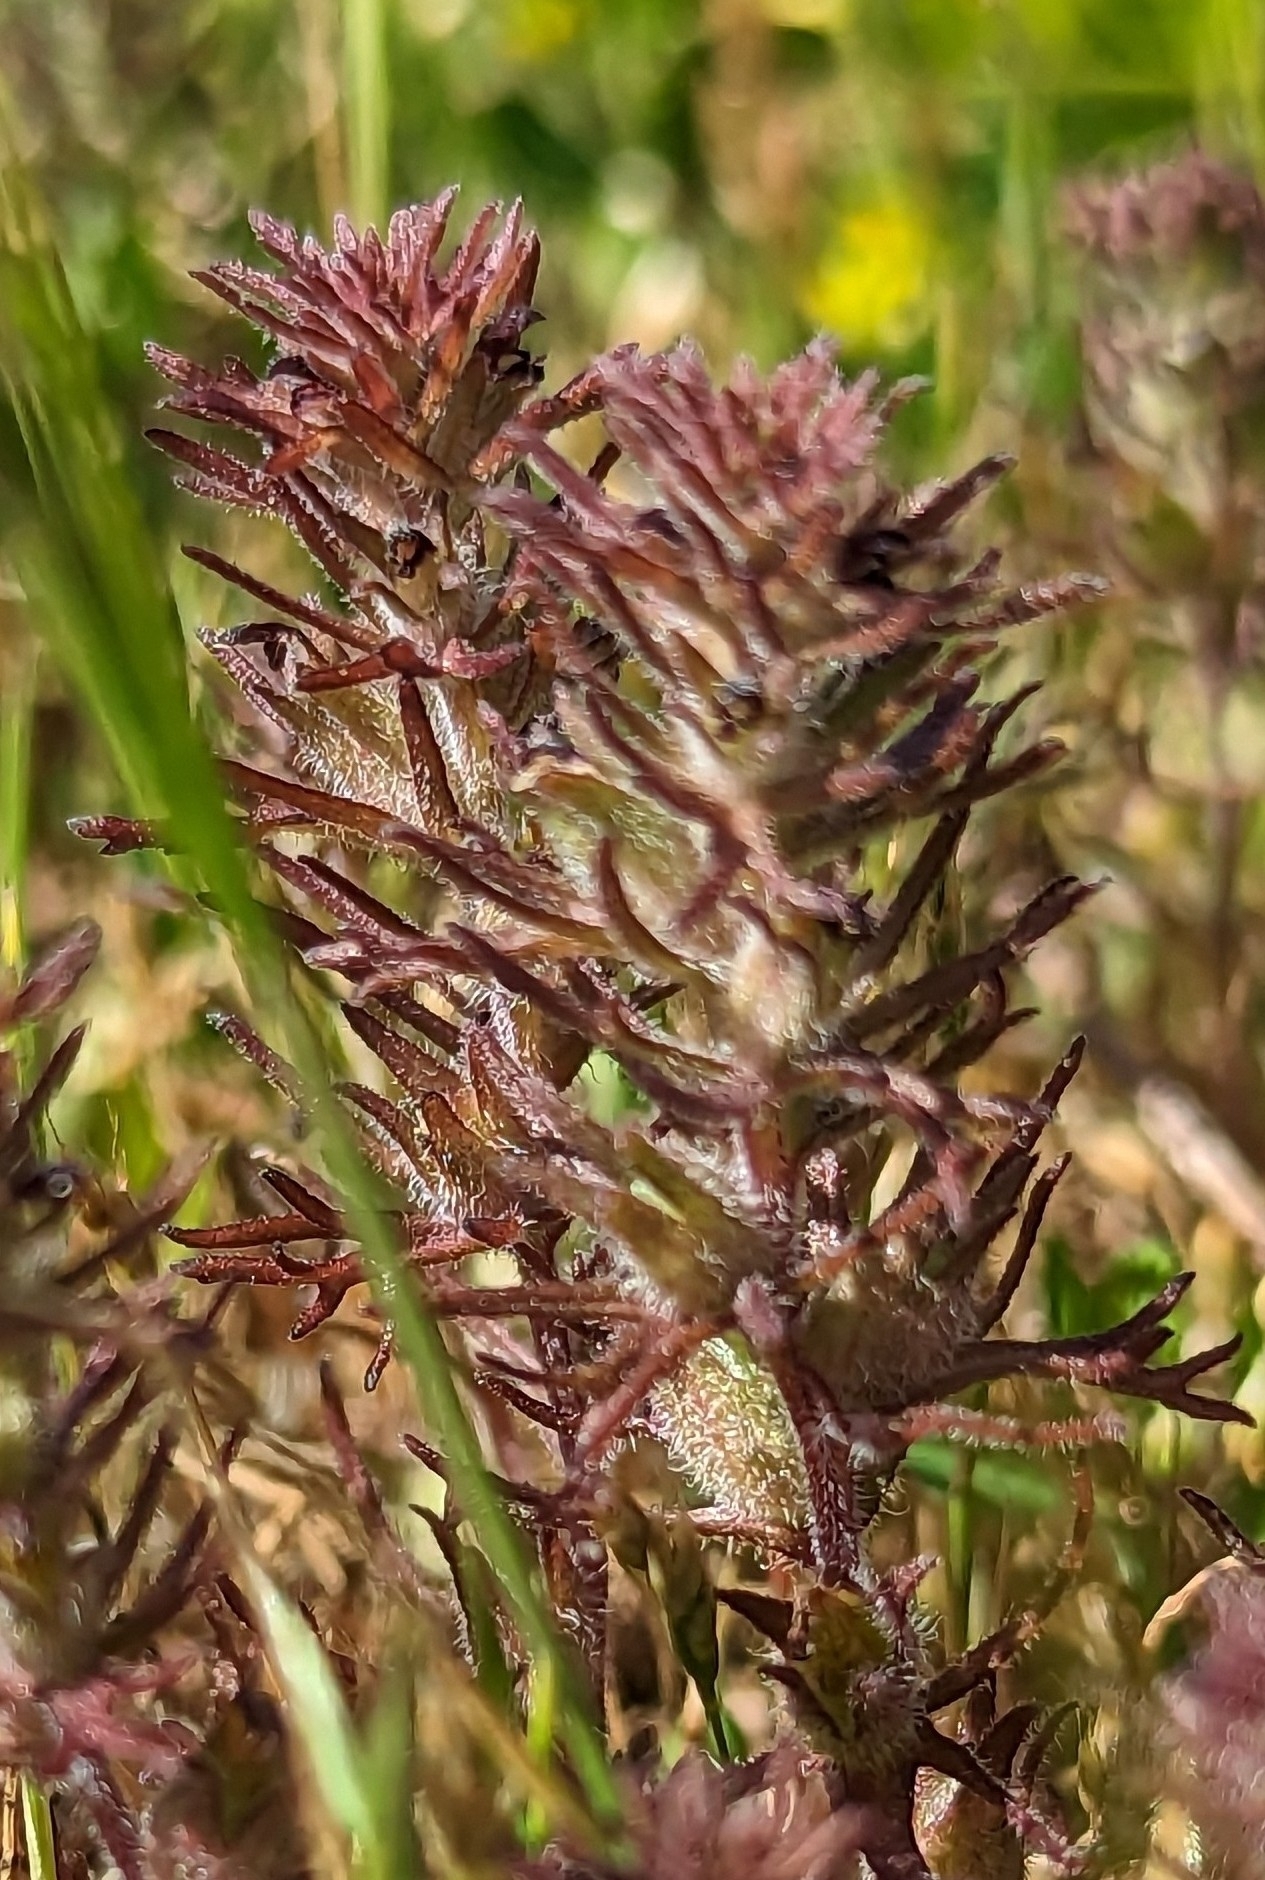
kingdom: Plantae
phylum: Tracheophyta
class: Magnoliopsida
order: Lamiales
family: Orobanchaceae
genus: Triphysaria
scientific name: Triphysaria pusilla
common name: Dwarf false owl-clover
